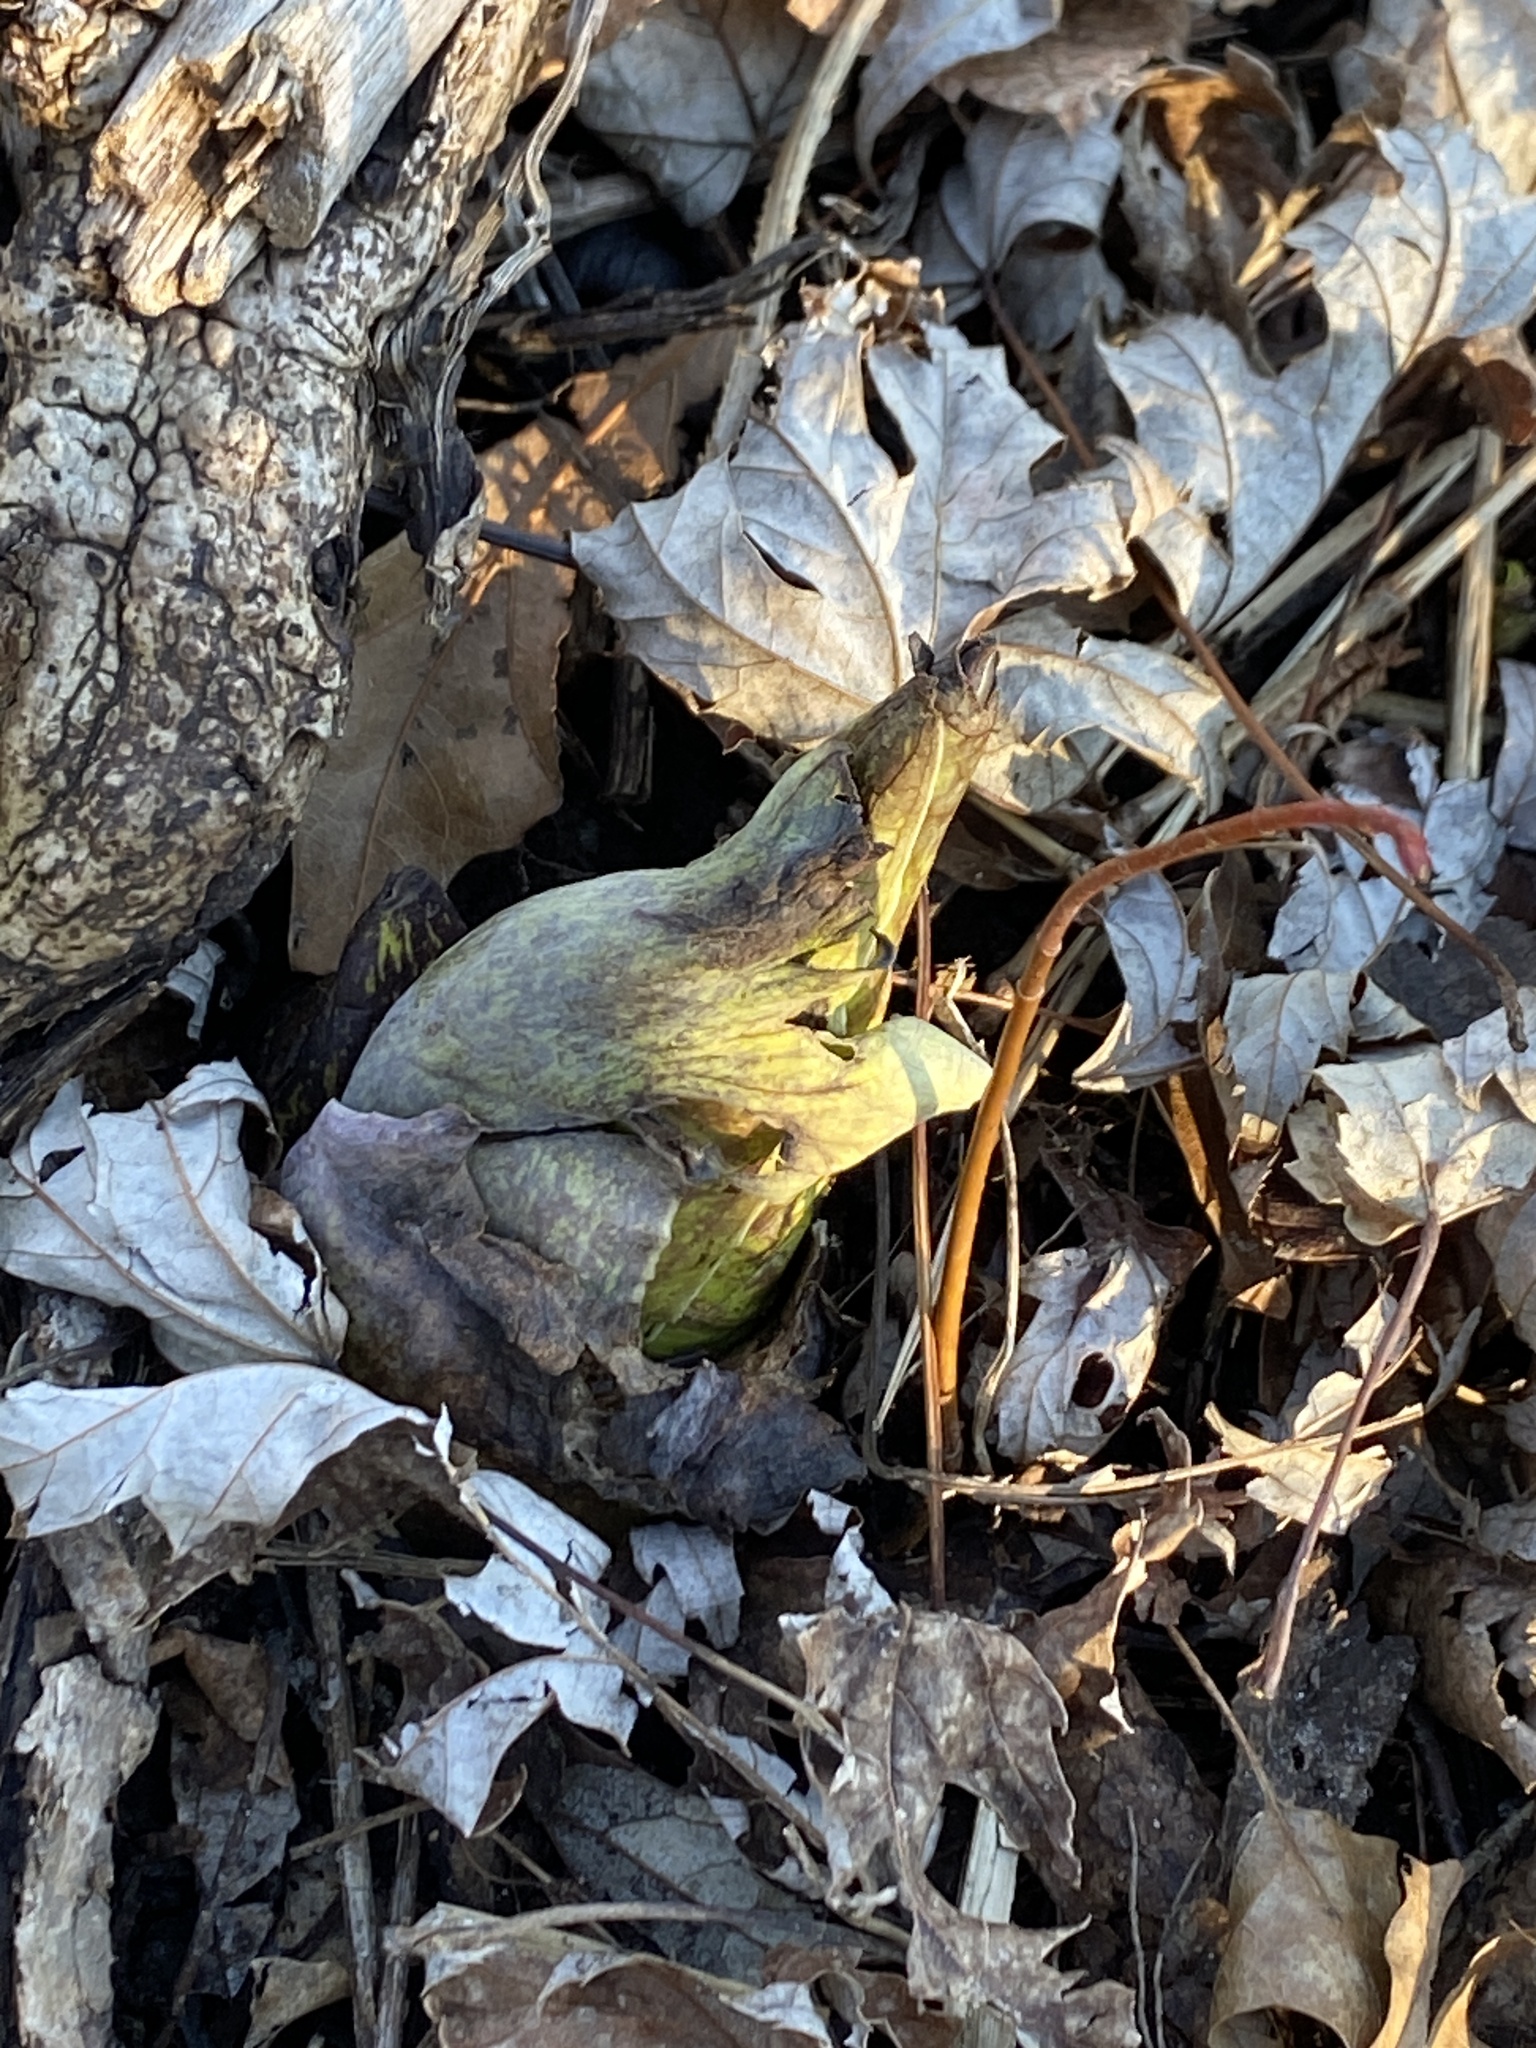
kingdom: Plantae
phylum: Tracheophyta
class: Liliopsida
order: Alismatales
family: Araceae
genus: Symplocarpus
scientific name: Symplocarpus foetidus
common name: Eastern skunk cabbage
